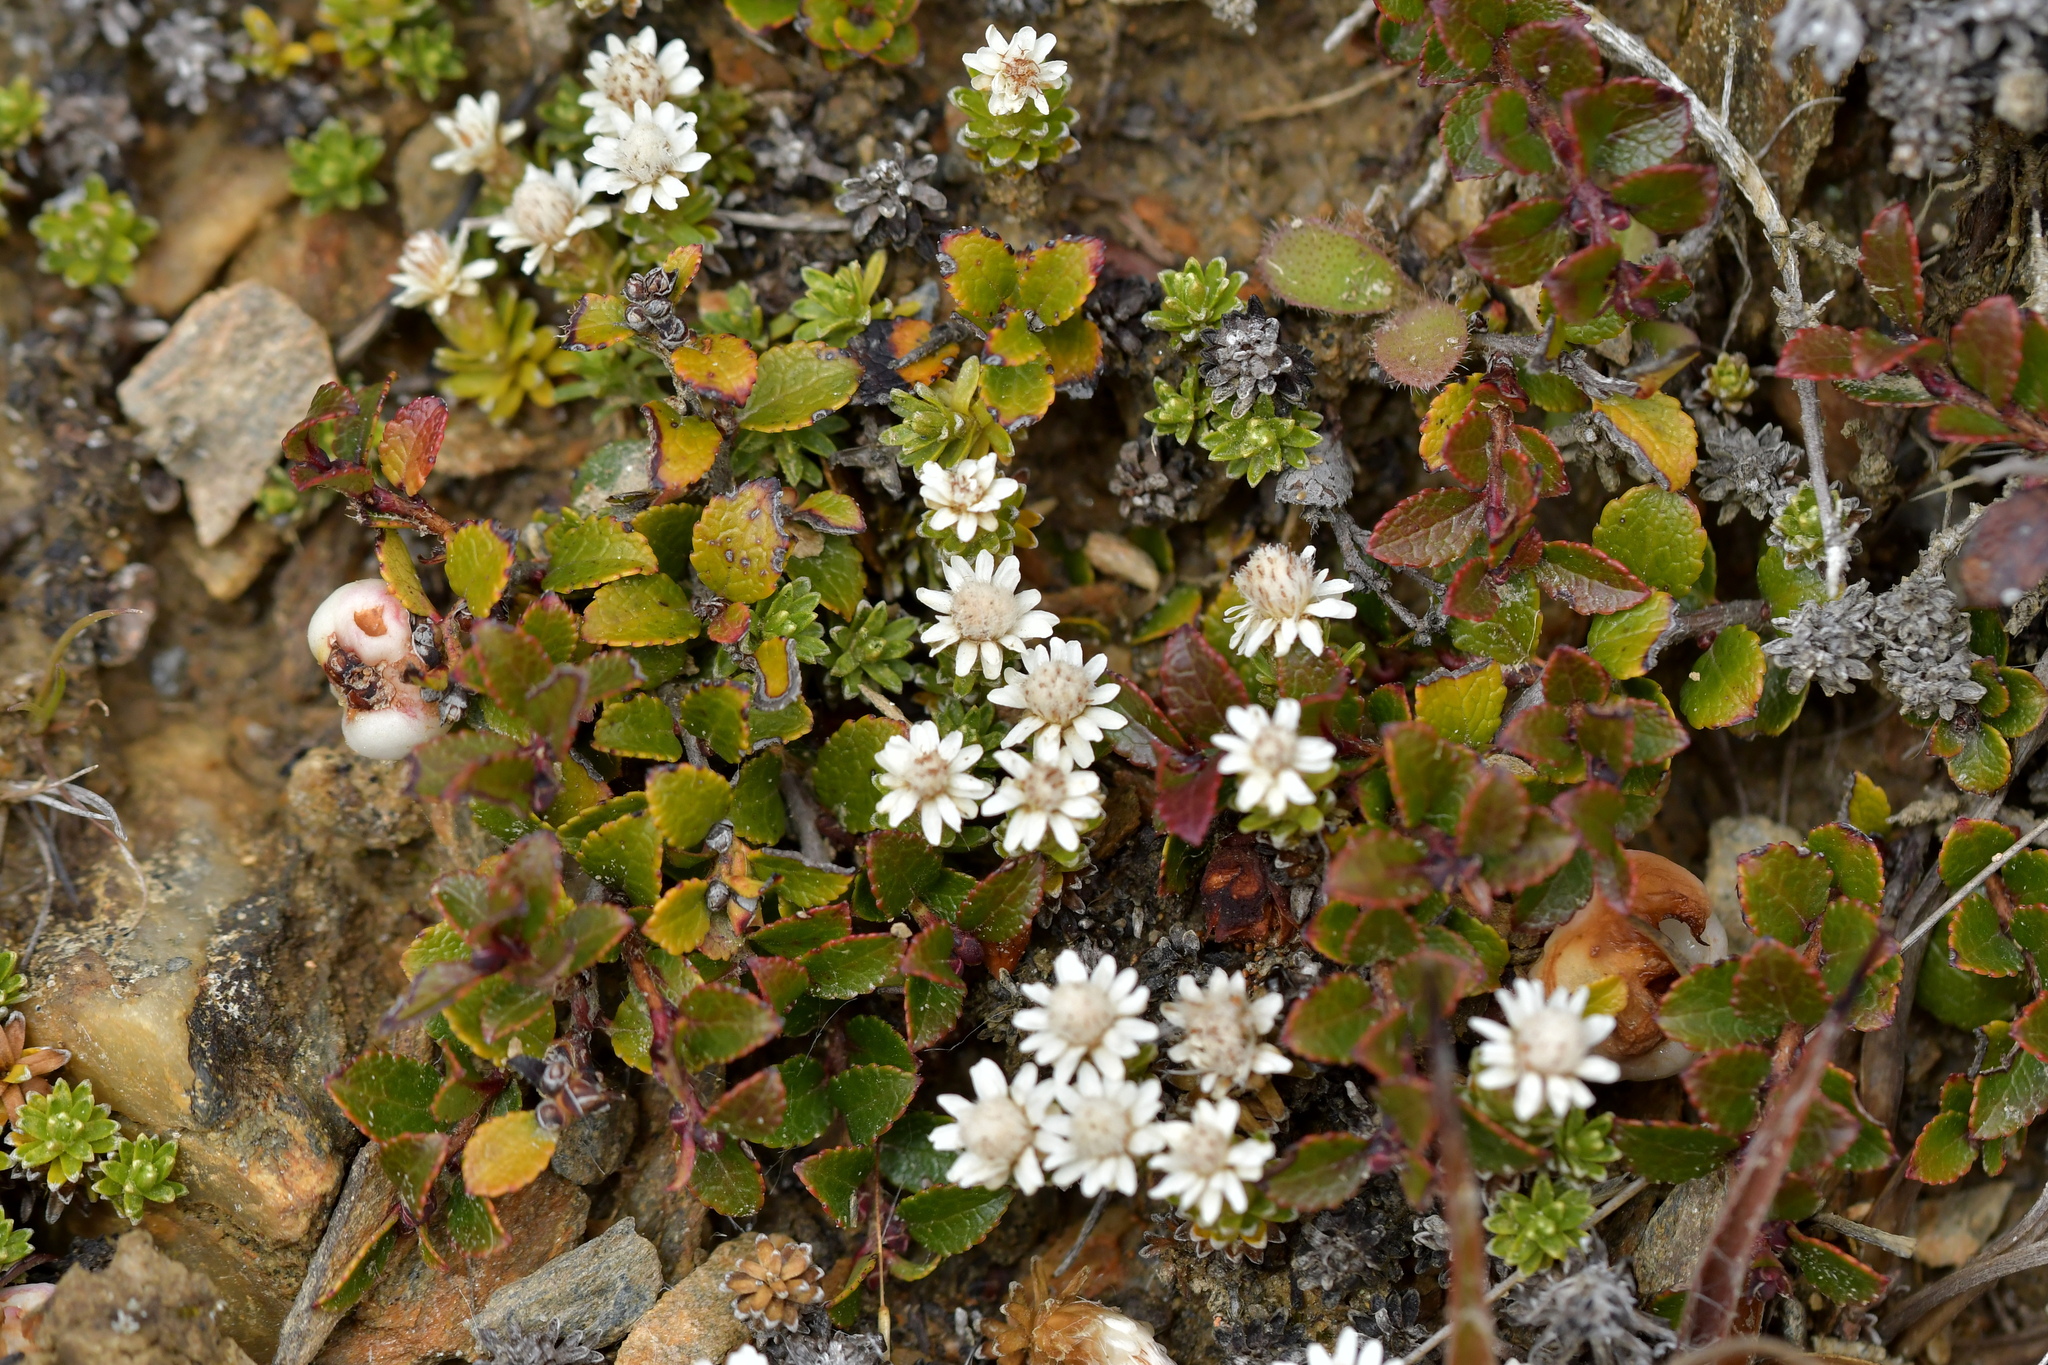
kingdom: Plantae
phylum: Tracheophyta
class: Magnoliopsida
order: Asterales
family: Asteraceae
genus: Raoulia
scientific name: Raoulia subsericea
